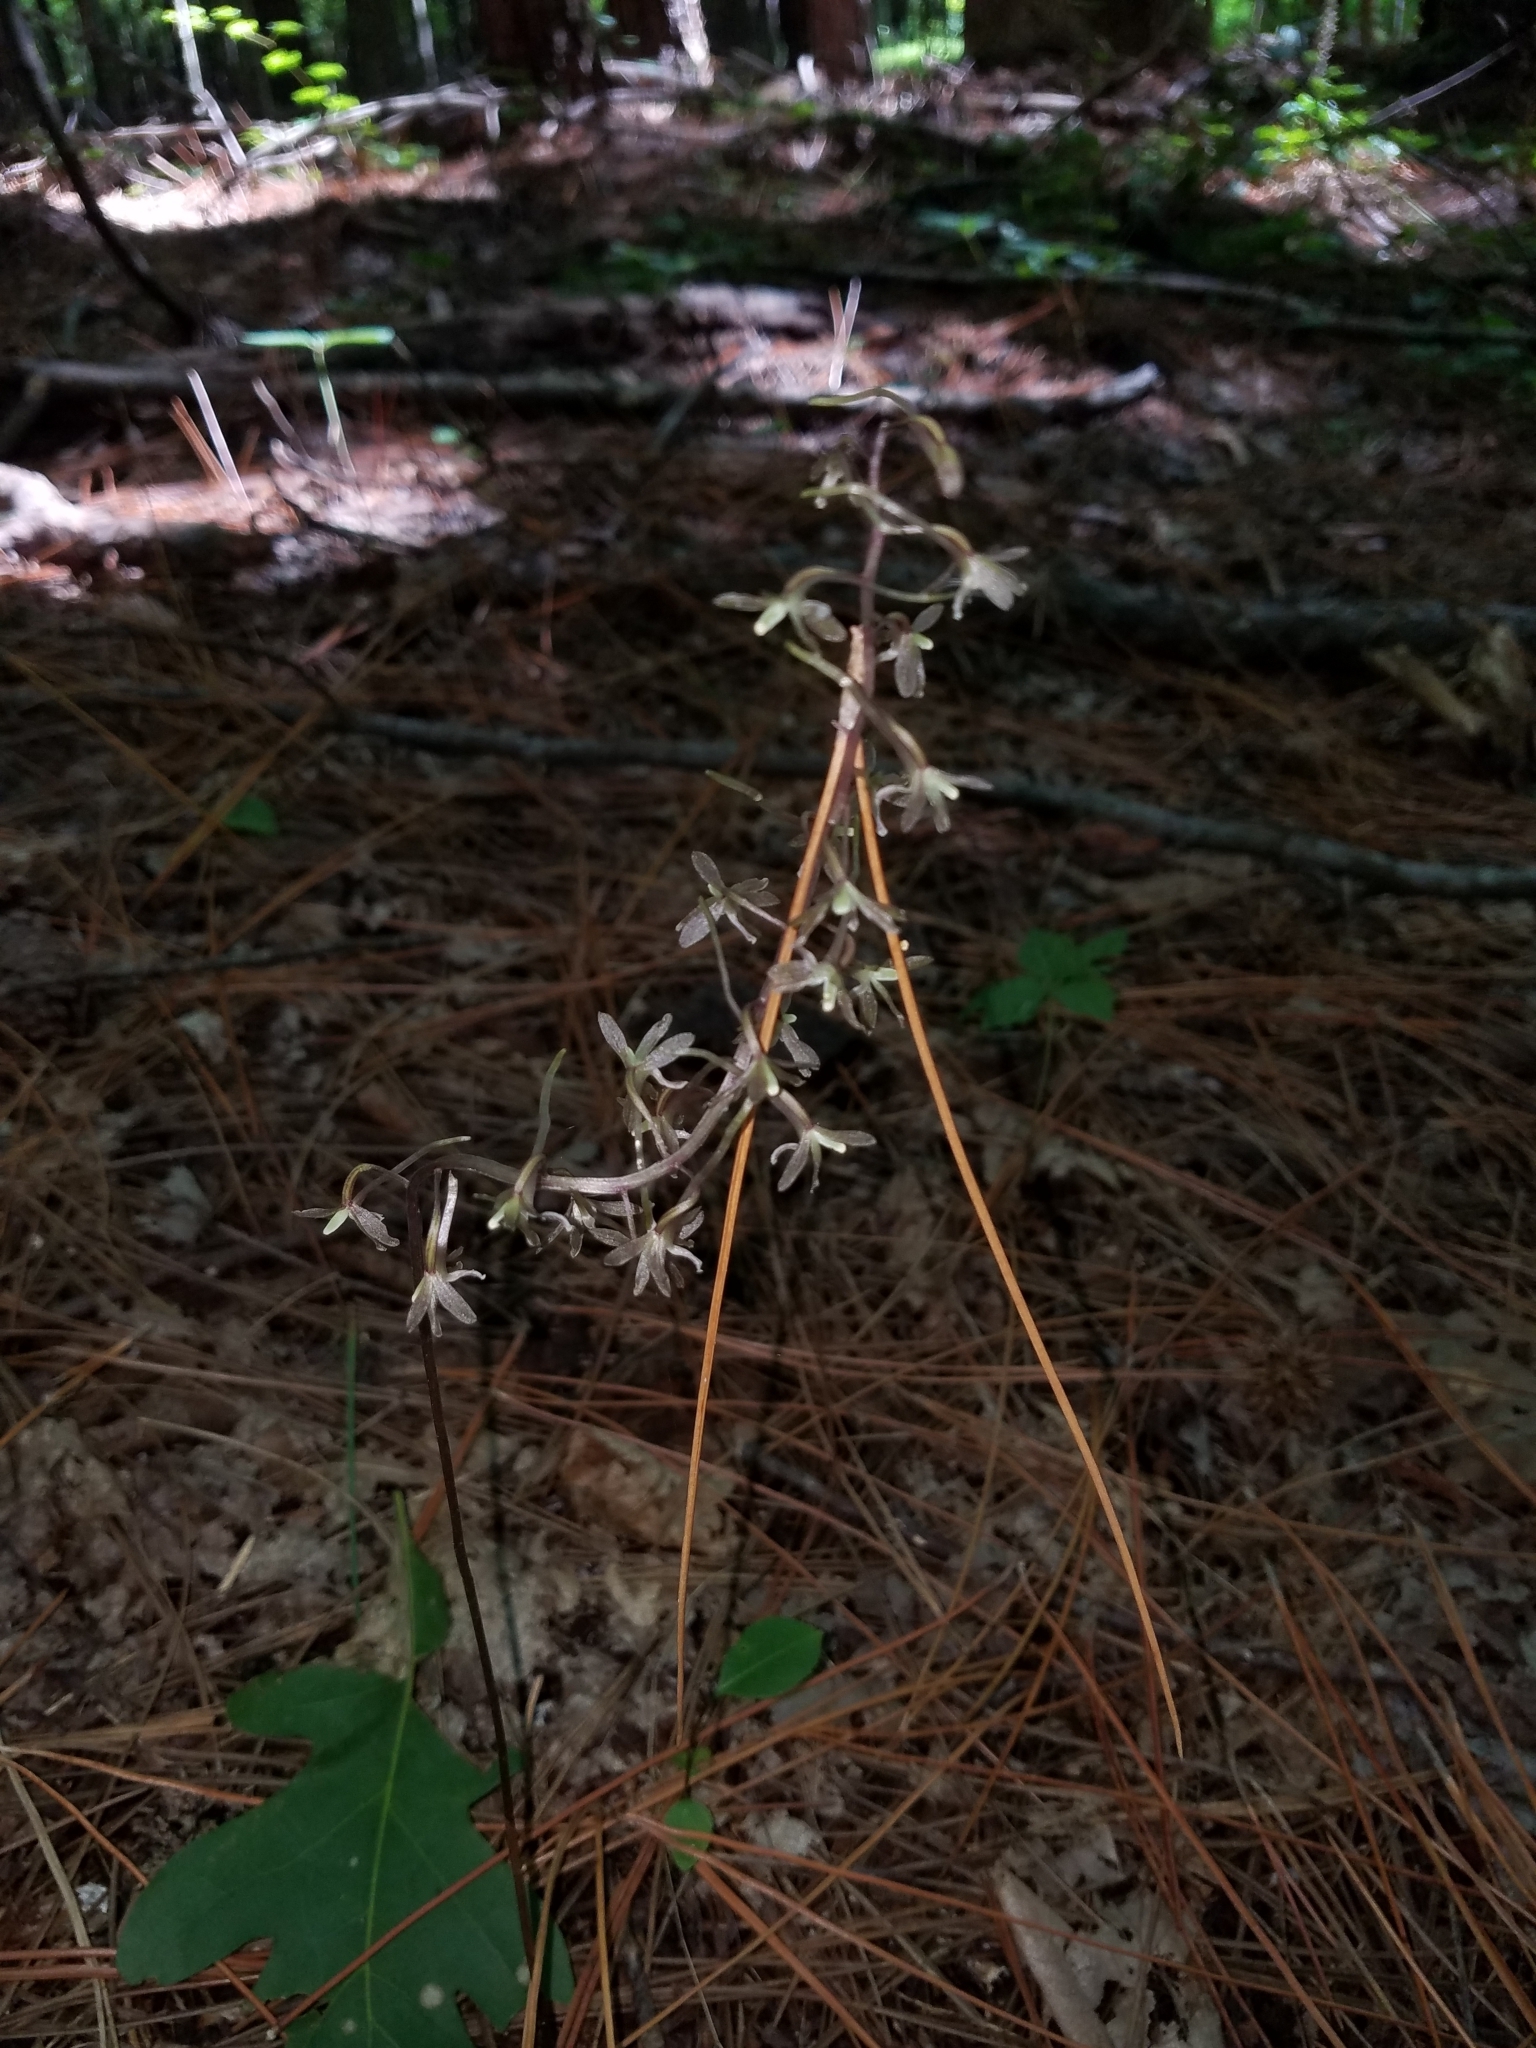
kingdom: Plantae
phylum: Tracheophyta
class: Liliopsida
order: Asparagales
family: Orchidaceae
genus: Tipularia
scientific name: Tipularia discolor
